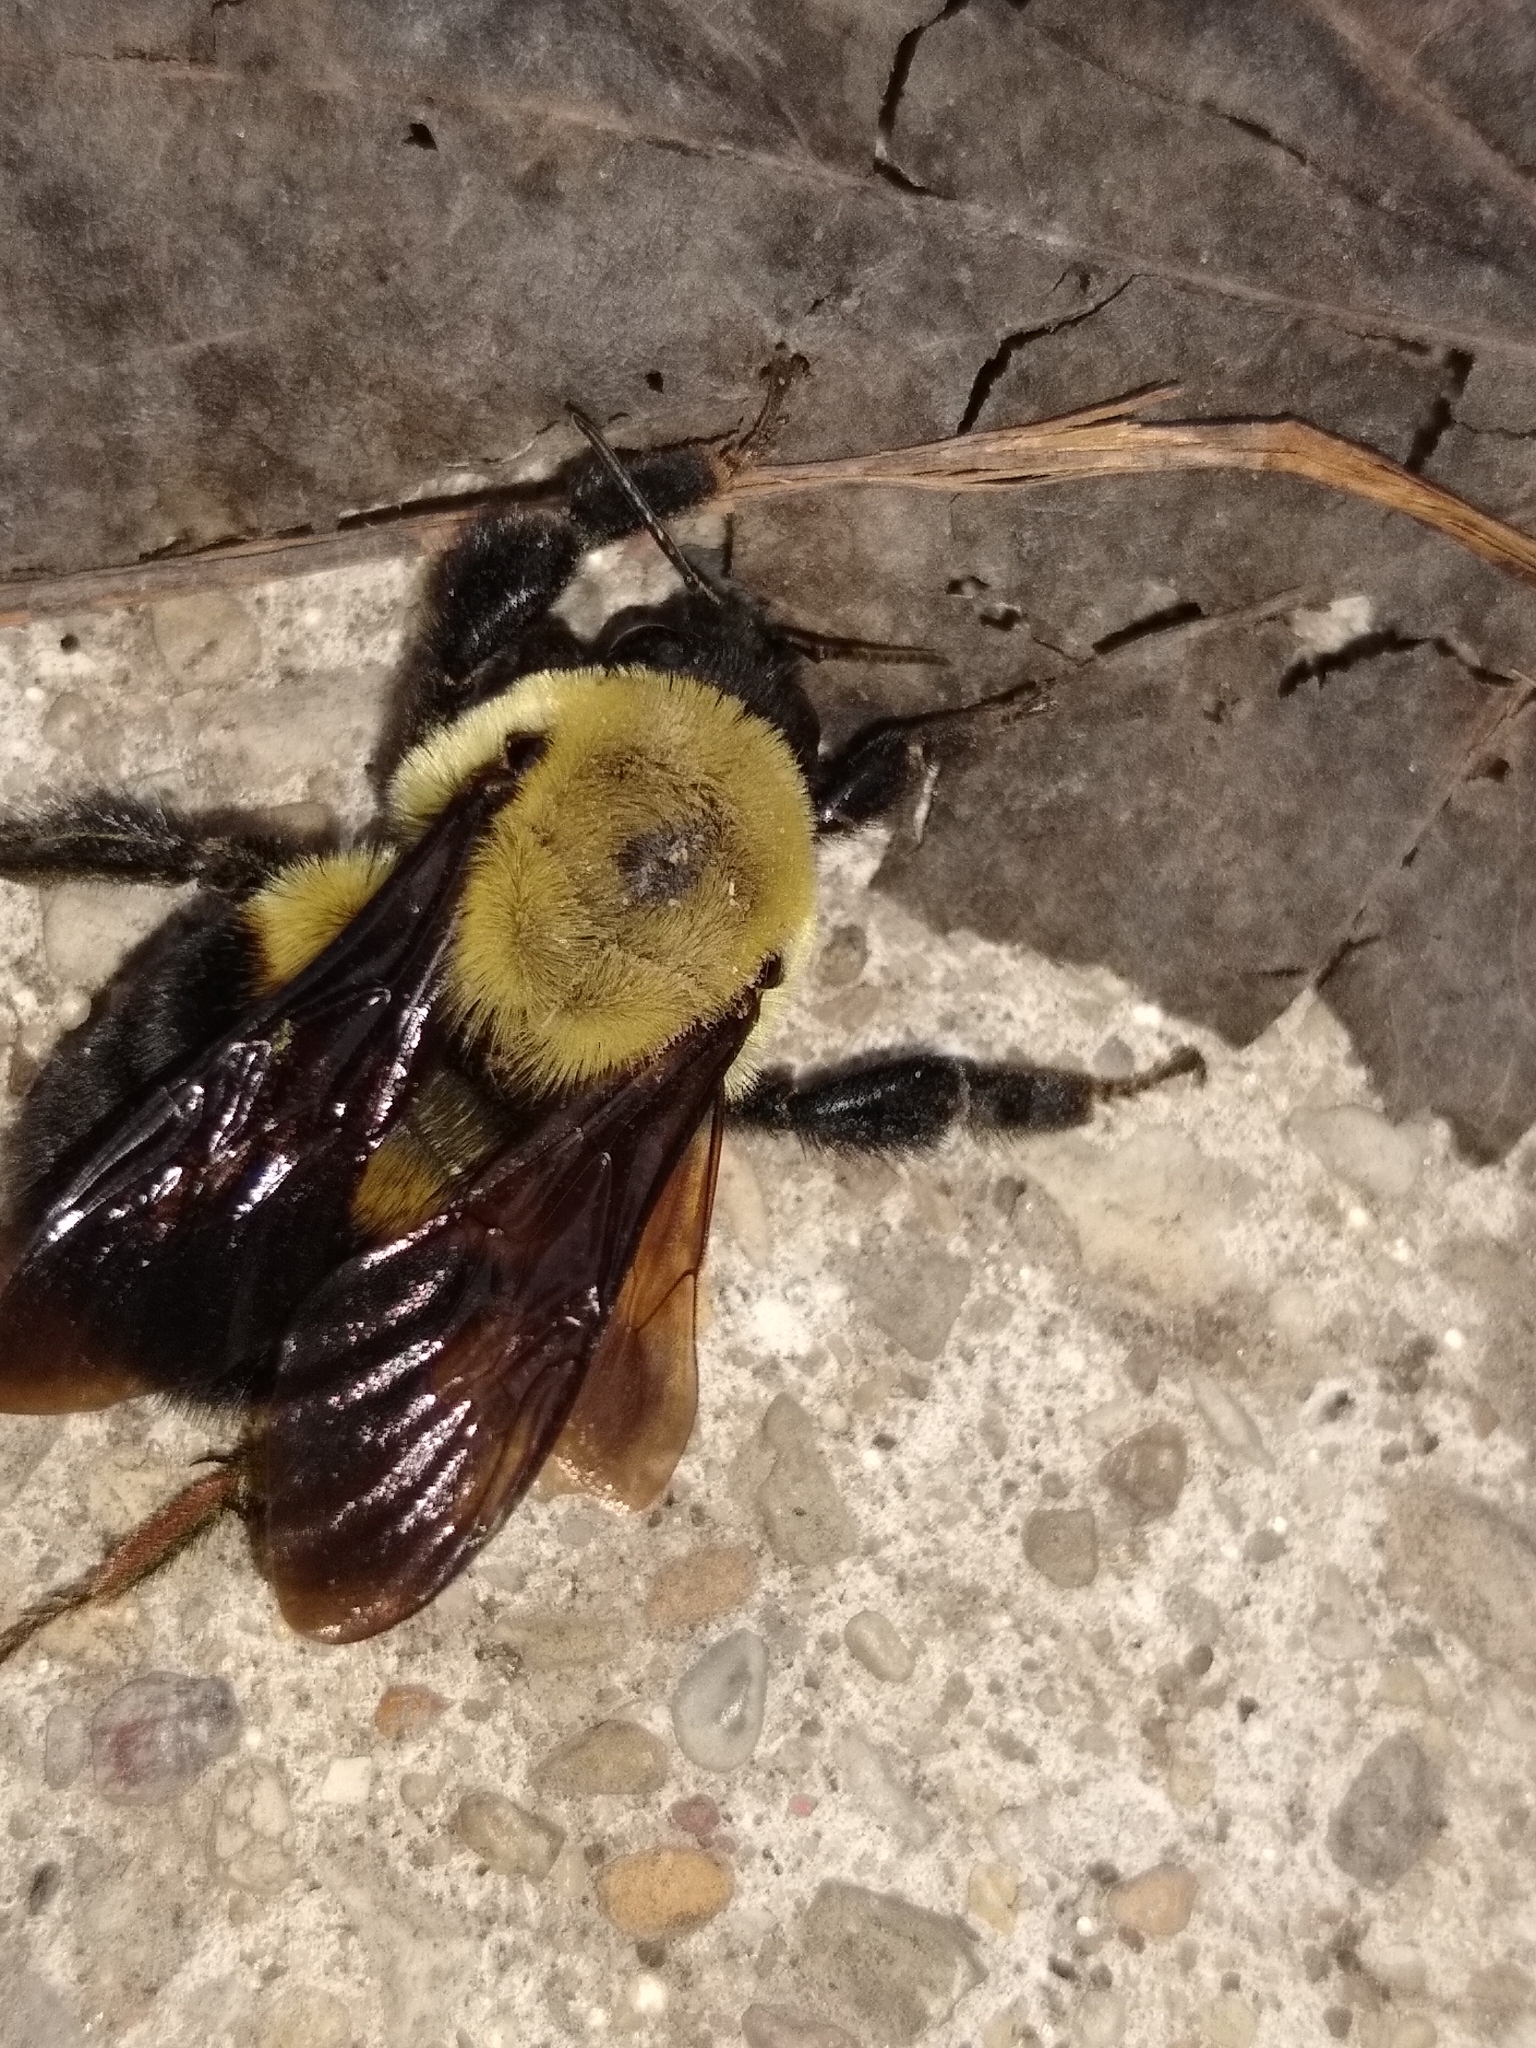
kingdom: Animalia
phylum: Arthropoda
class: Insecta
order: Hymenoptera
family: Apidae
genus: Bombus
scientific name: Bombus griseocollis
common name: Brown-belted bumble bee
